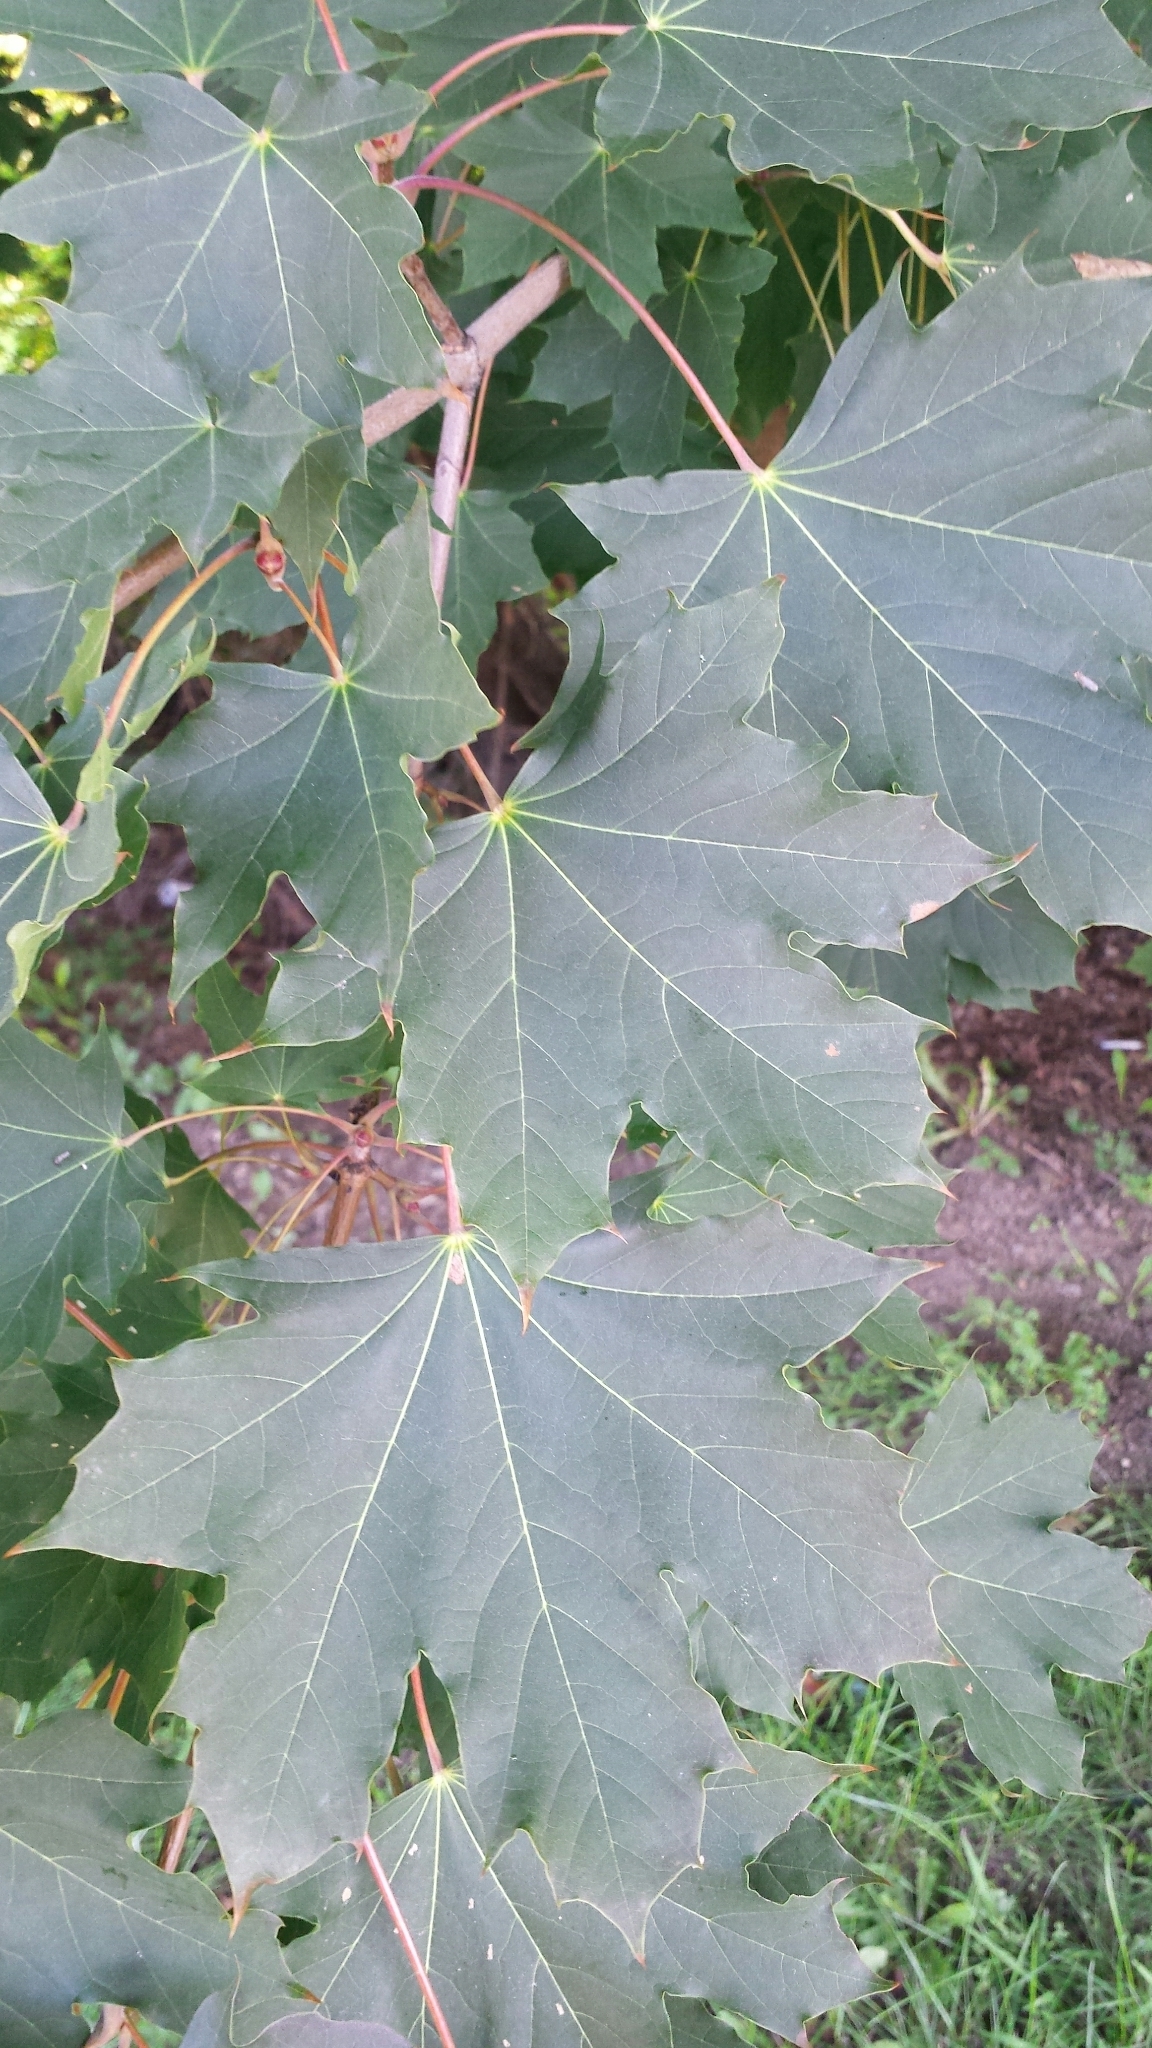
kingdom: Plantae
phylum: Tracheophyta
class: Magnoliopsida
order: Sapindales
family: Sapindaceae
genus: Acer
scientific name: Acer platanoides
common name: Norway maple
